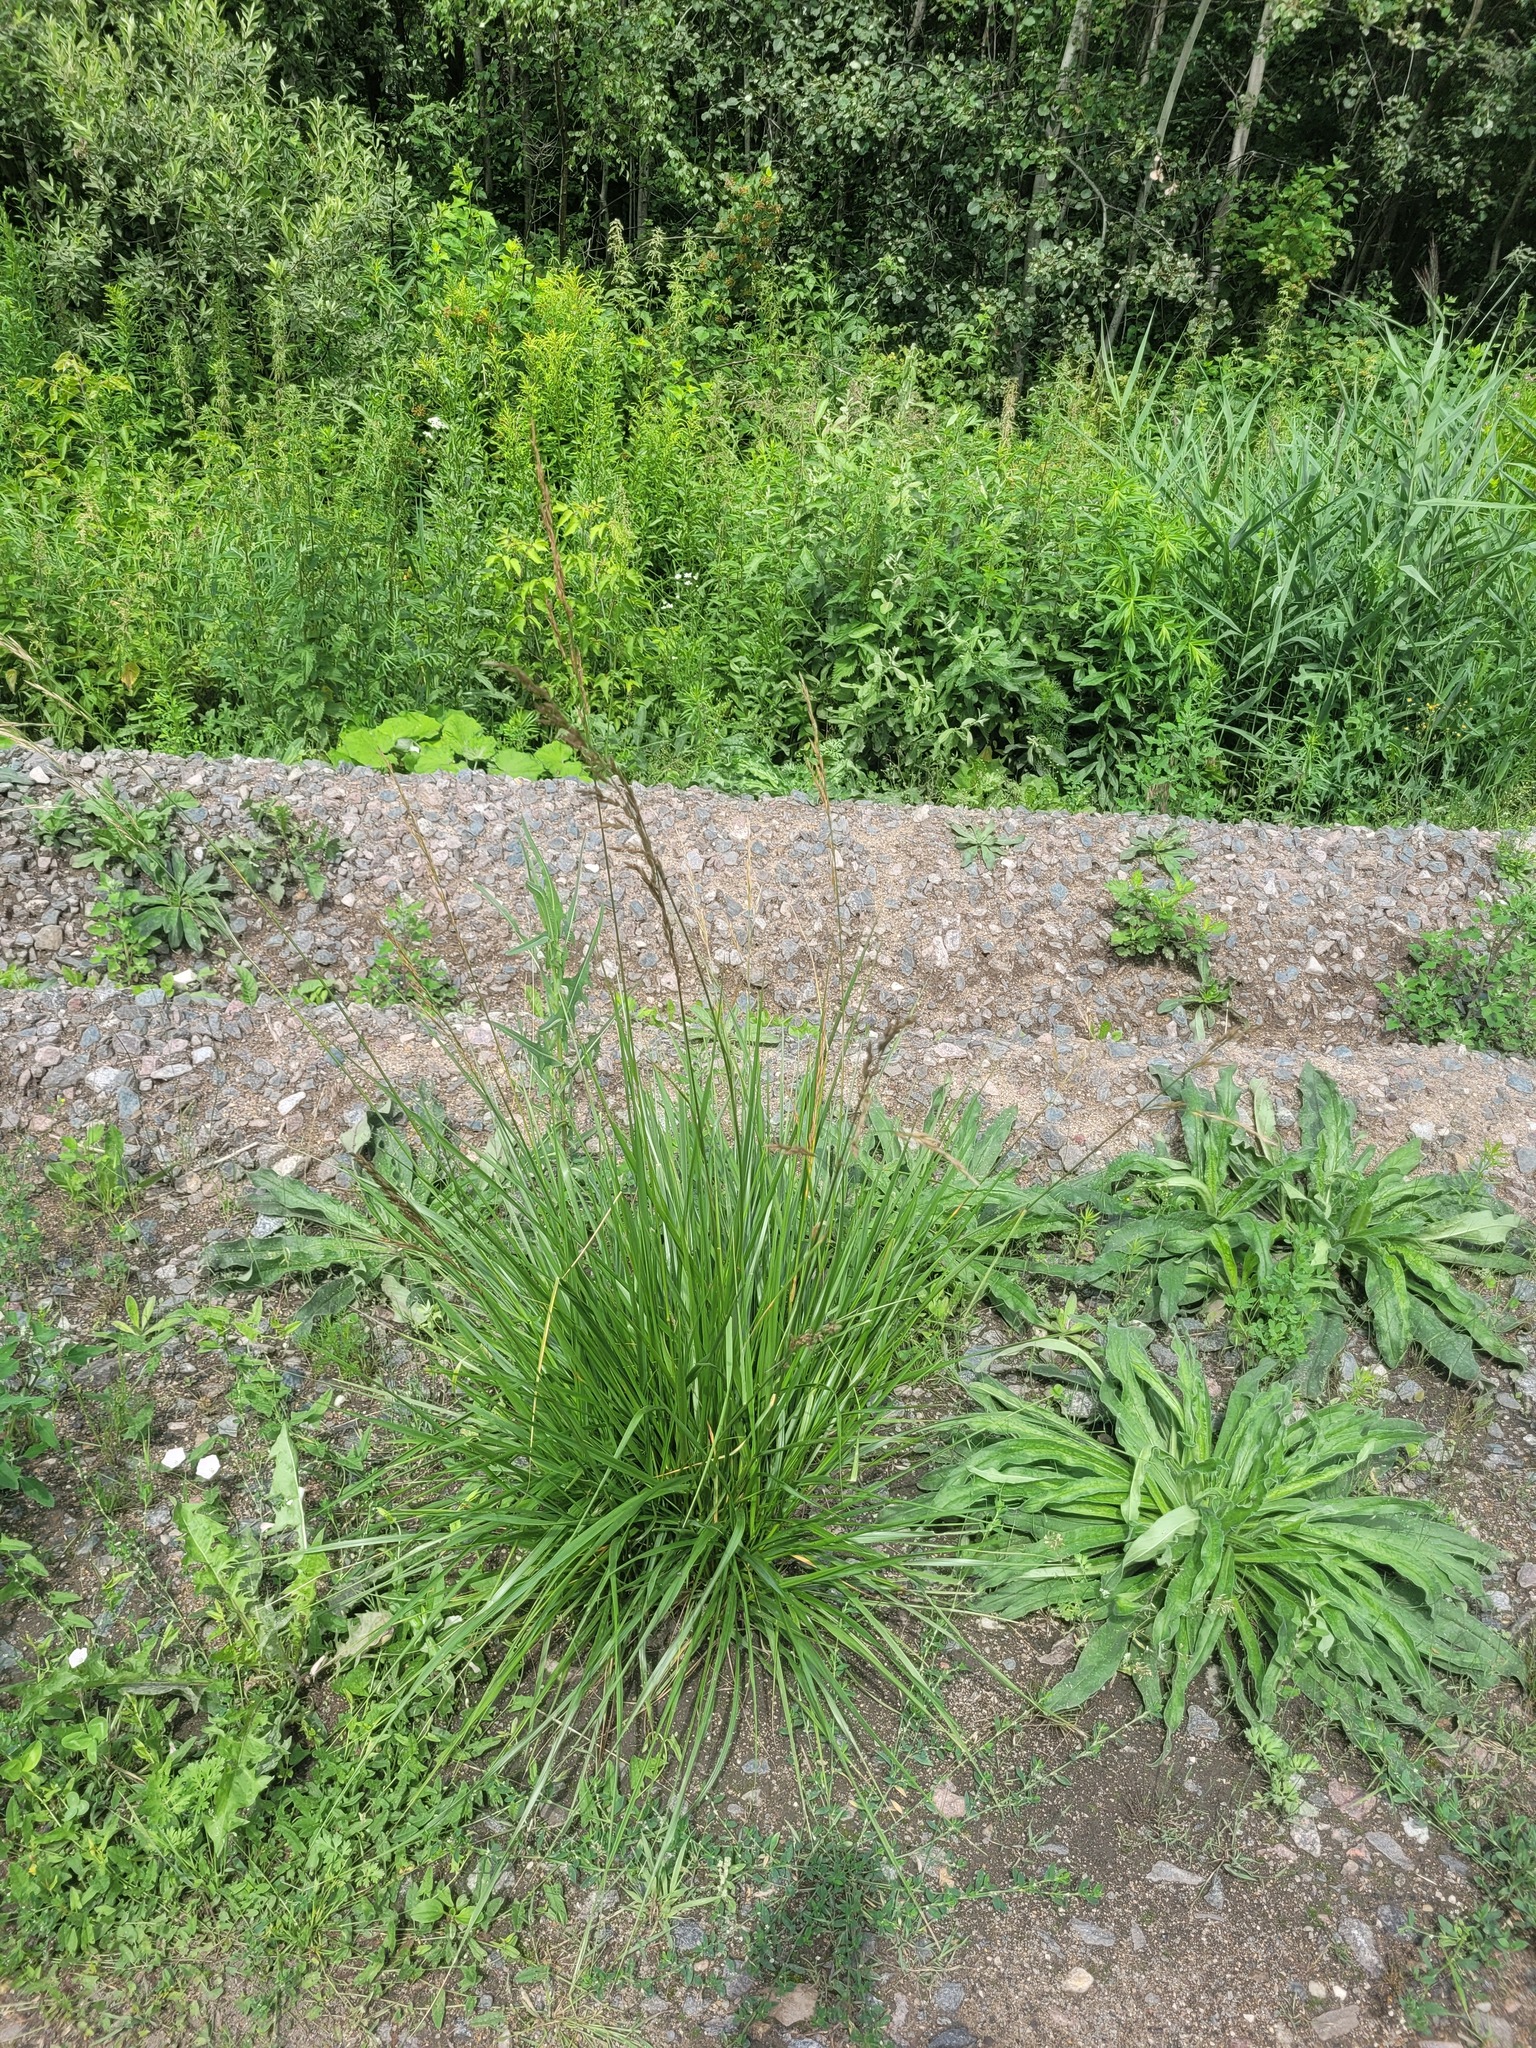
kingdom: Plantae
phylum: Tracheophyta
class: Liliopsida
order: Poales
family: Poaceae
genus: Lolium
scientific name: Lolium arundinaceum
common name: Reed fescue
